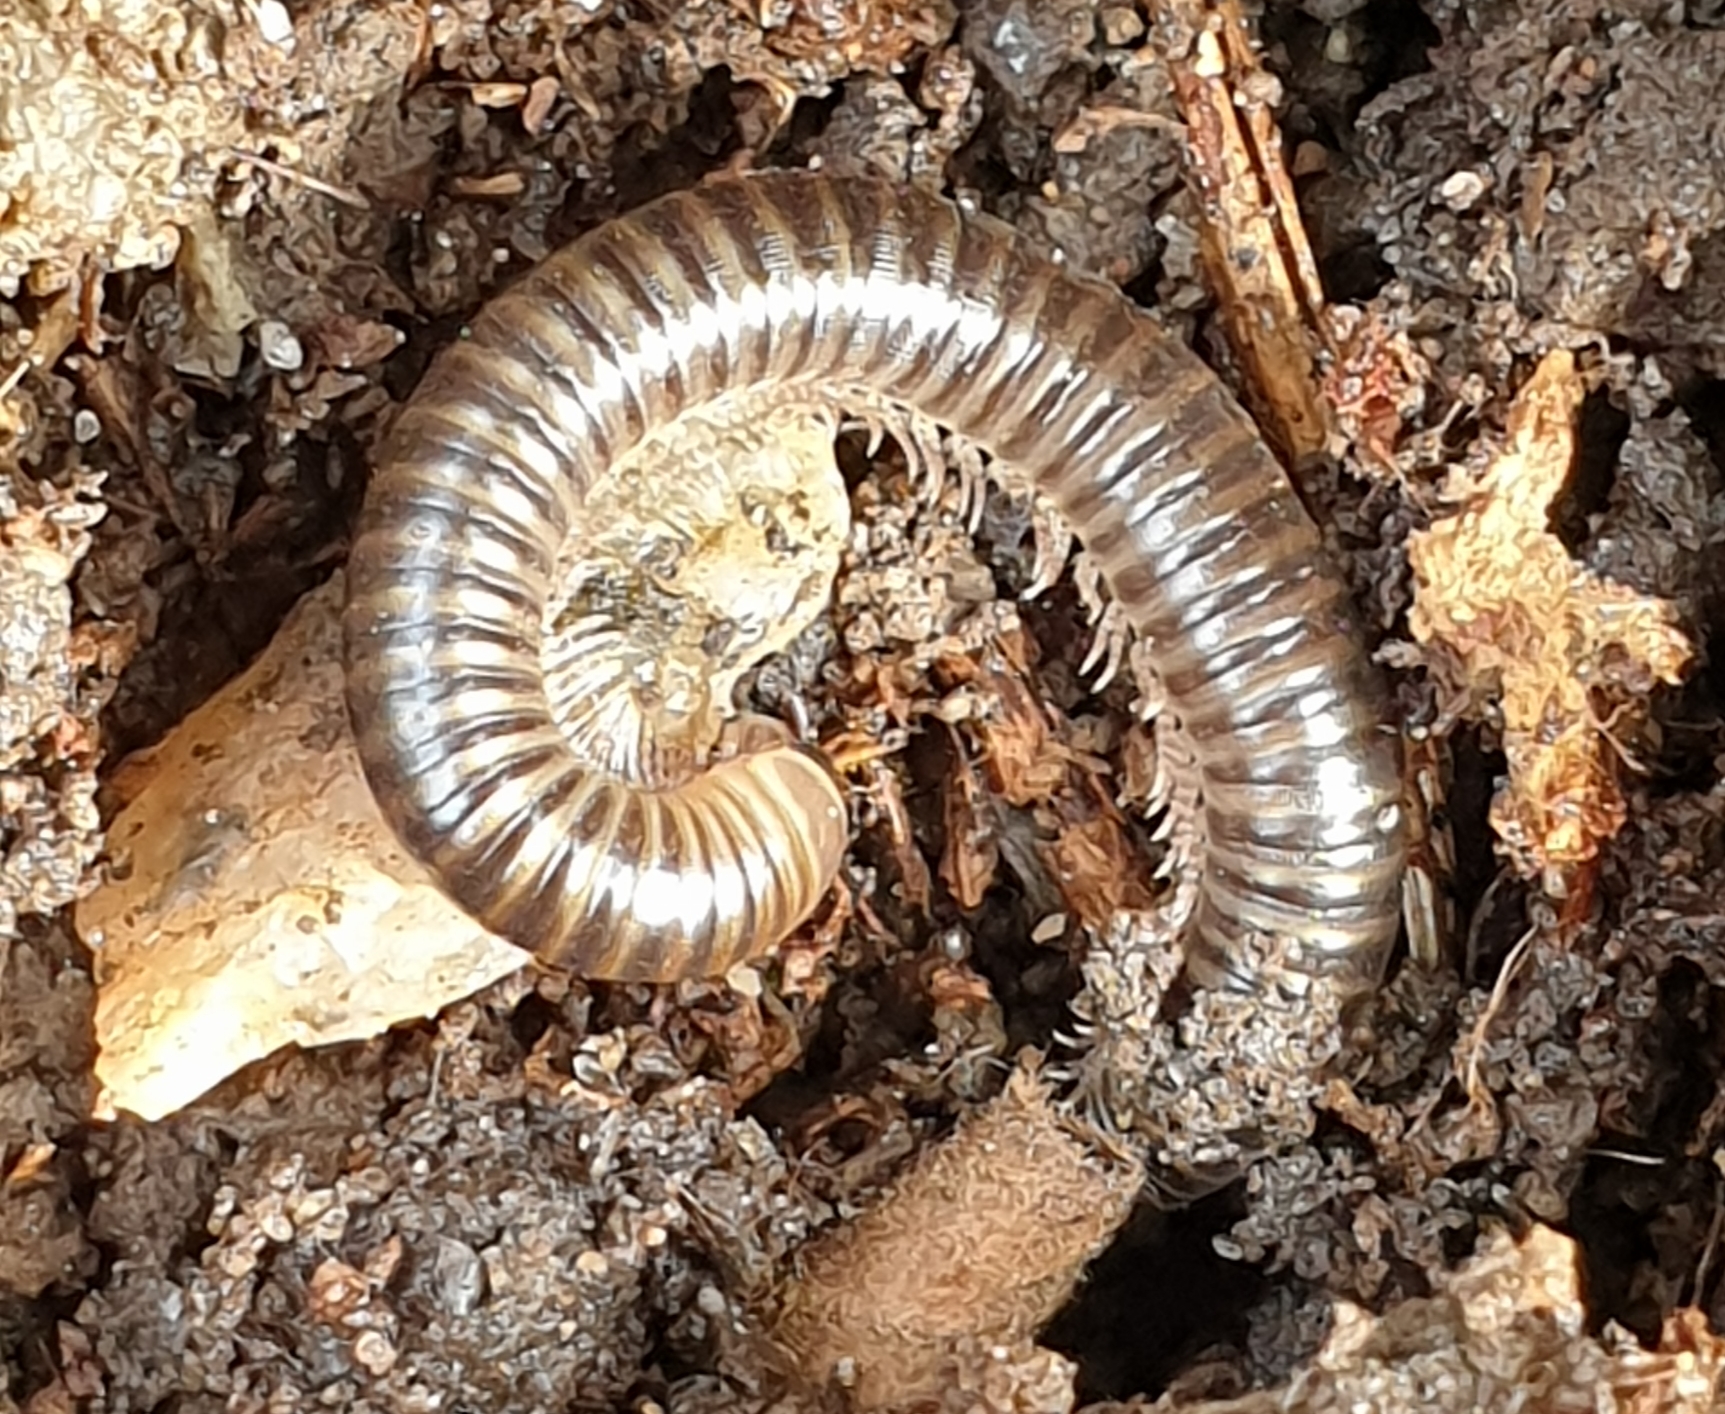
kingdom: Animalia
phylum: Arthropoda
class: Diplopoda
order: Julida
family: Julidae
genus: Cylindroiulus
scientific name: Cylindroiulus caeruleocinctus
